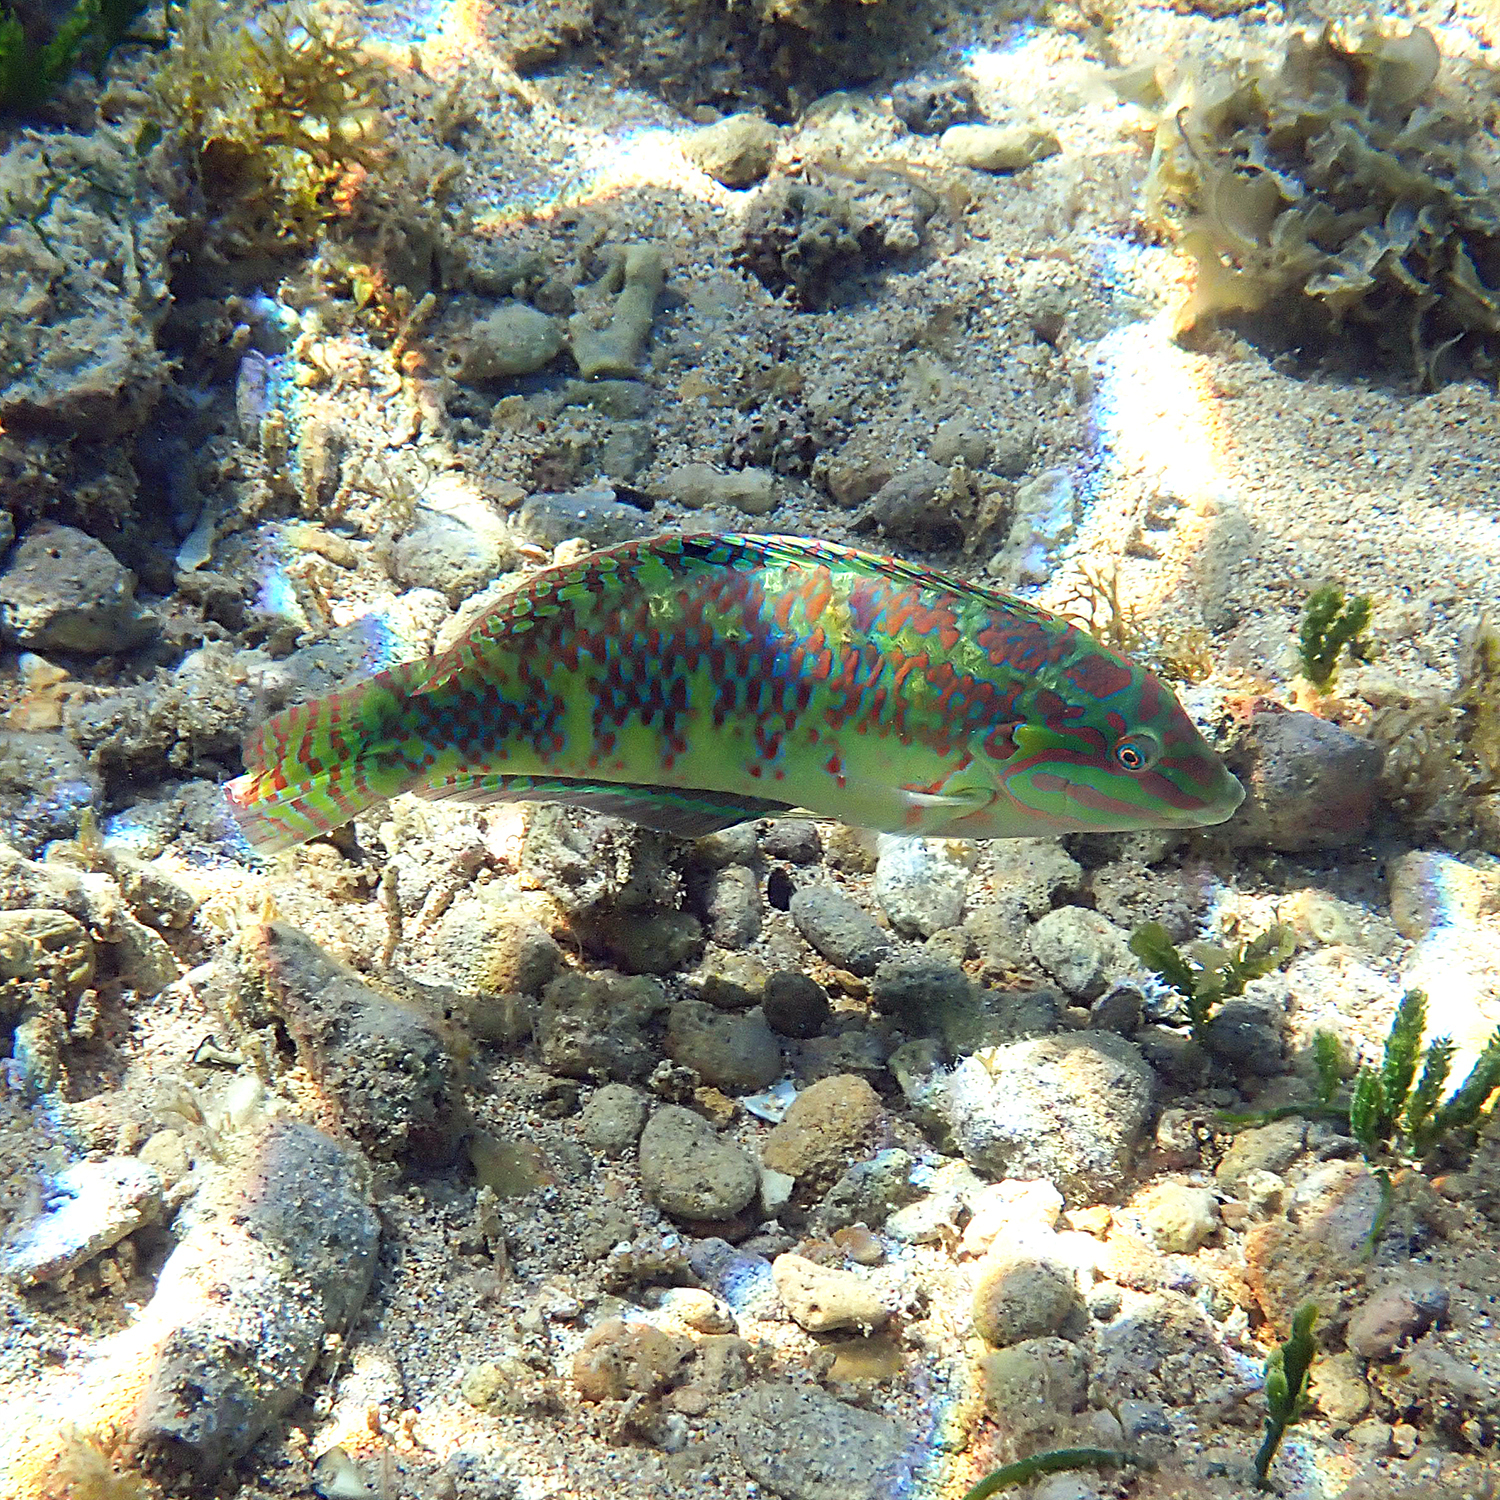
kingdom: Animalia
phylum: Chordata
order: Perciformes
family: Labridae
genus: Halichoeres
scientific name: Halichoeres margaritaceus
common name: Pink-belly wrasse
